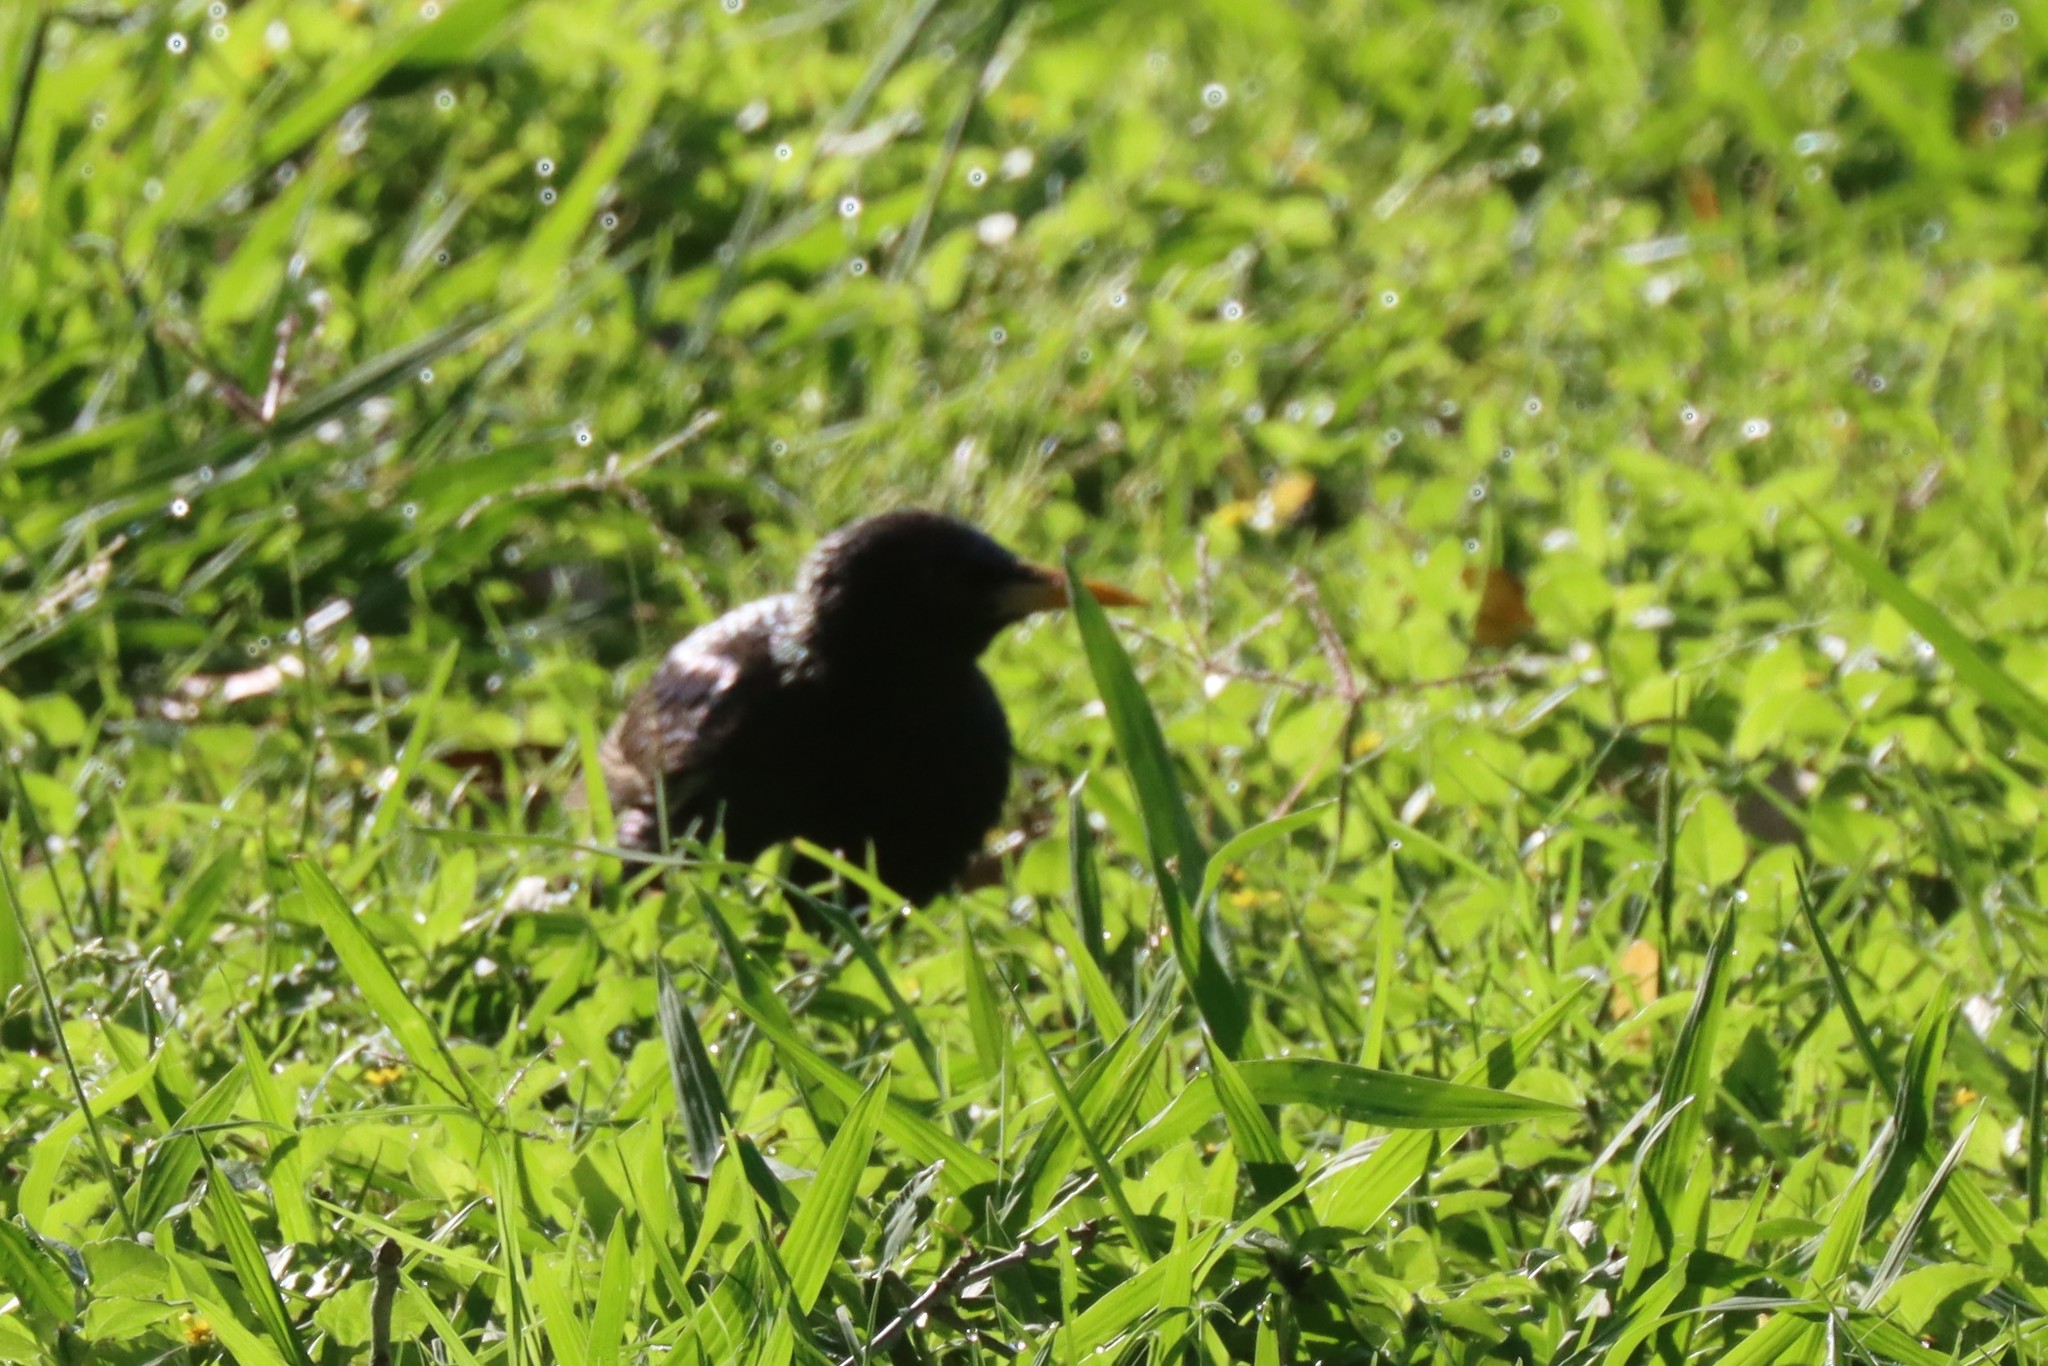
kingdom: Animalia
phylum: Chordata
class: Aves
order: Passeriformes
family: Sturnidae
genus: Sturnus
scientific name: Sturnus vulgaris
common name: Common starling
